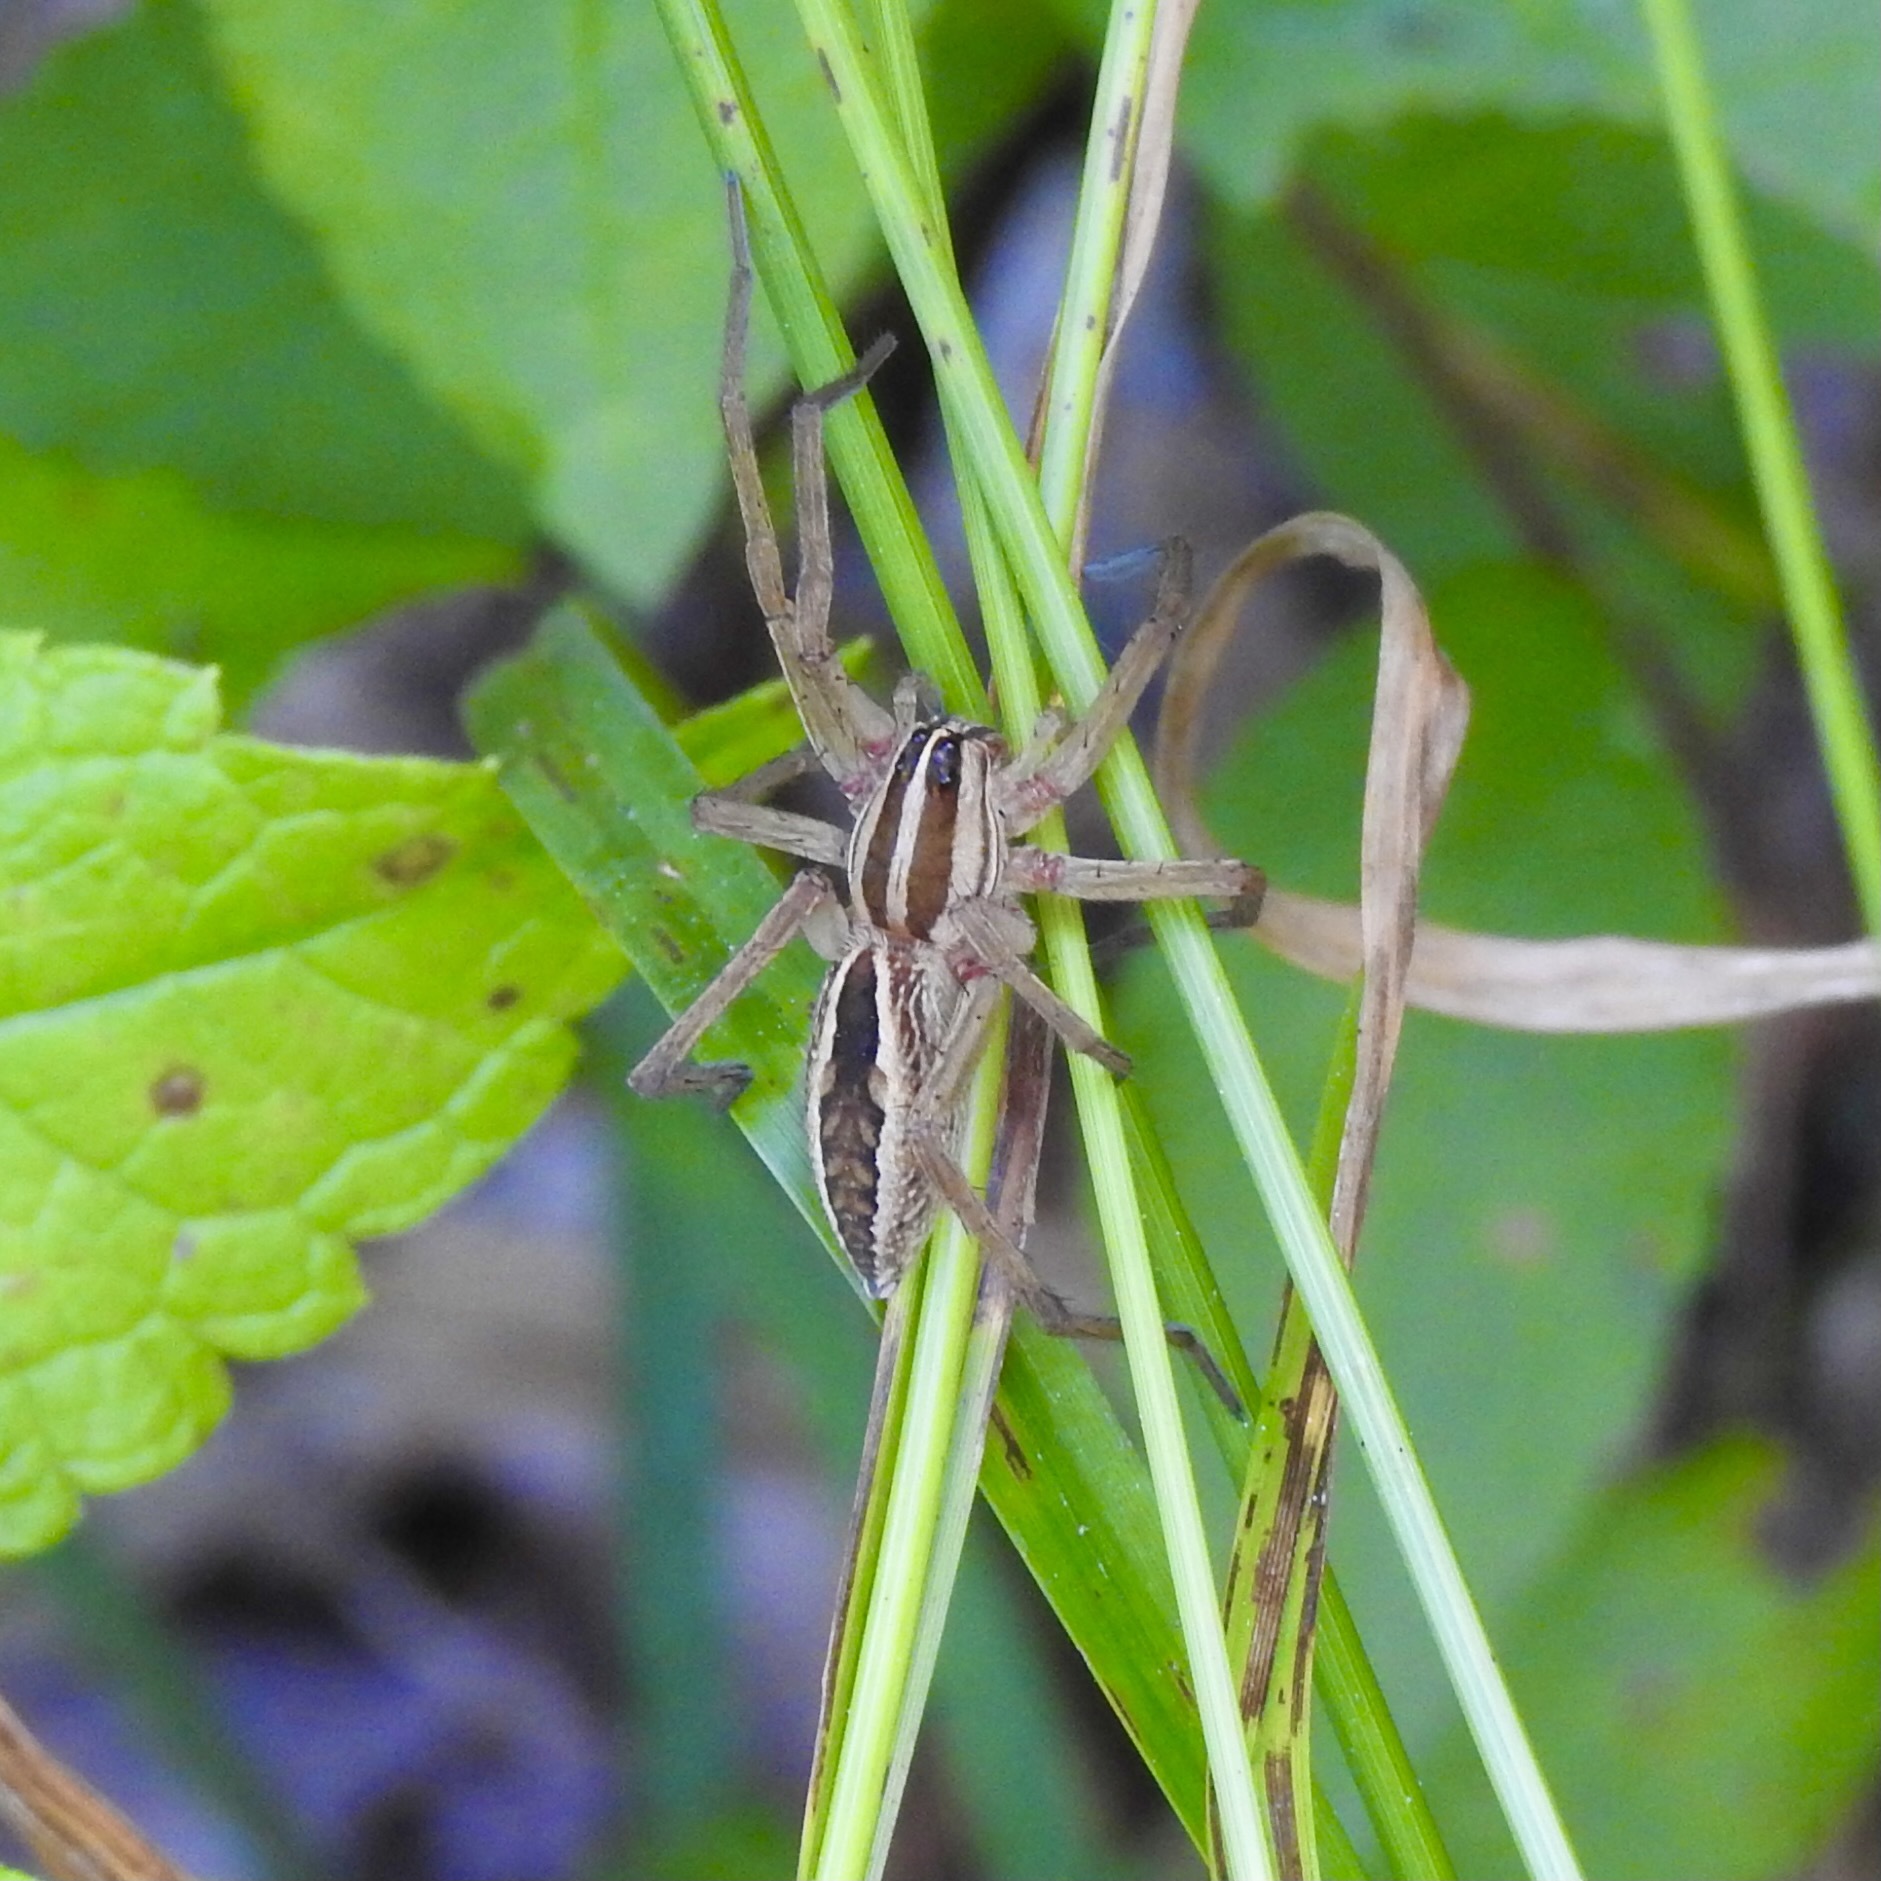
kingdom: Animalia
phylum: Arthropoda
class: Arachnida
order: Araneae
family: Lycosidae
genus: Rabidosa
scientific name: Rabidosa rabida
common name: Rabid wolf spider
